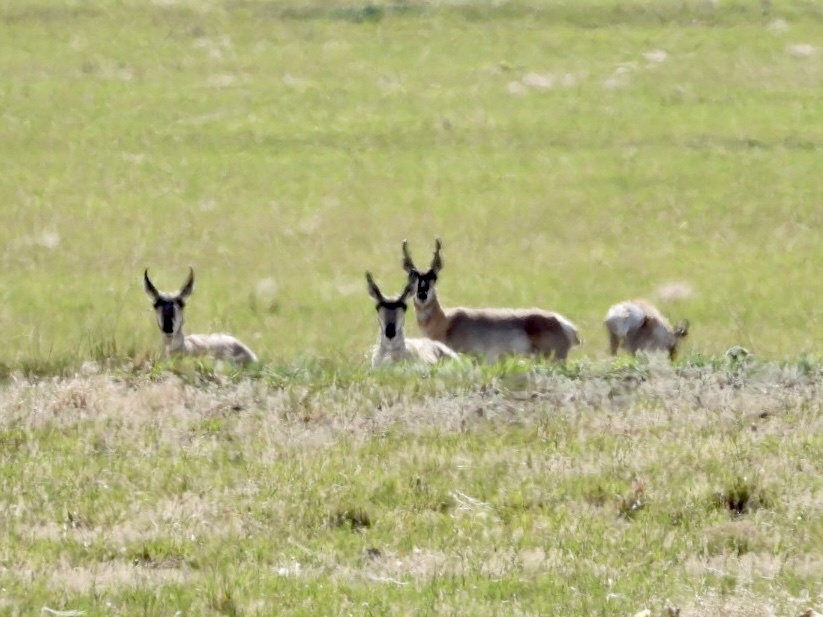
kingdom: Animalia
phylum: Chordata
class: Mammalia
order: Artiodactyla
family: Antilocapridae
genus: Antilocapra
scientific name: Antilocapra americana
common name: Pronghorn
